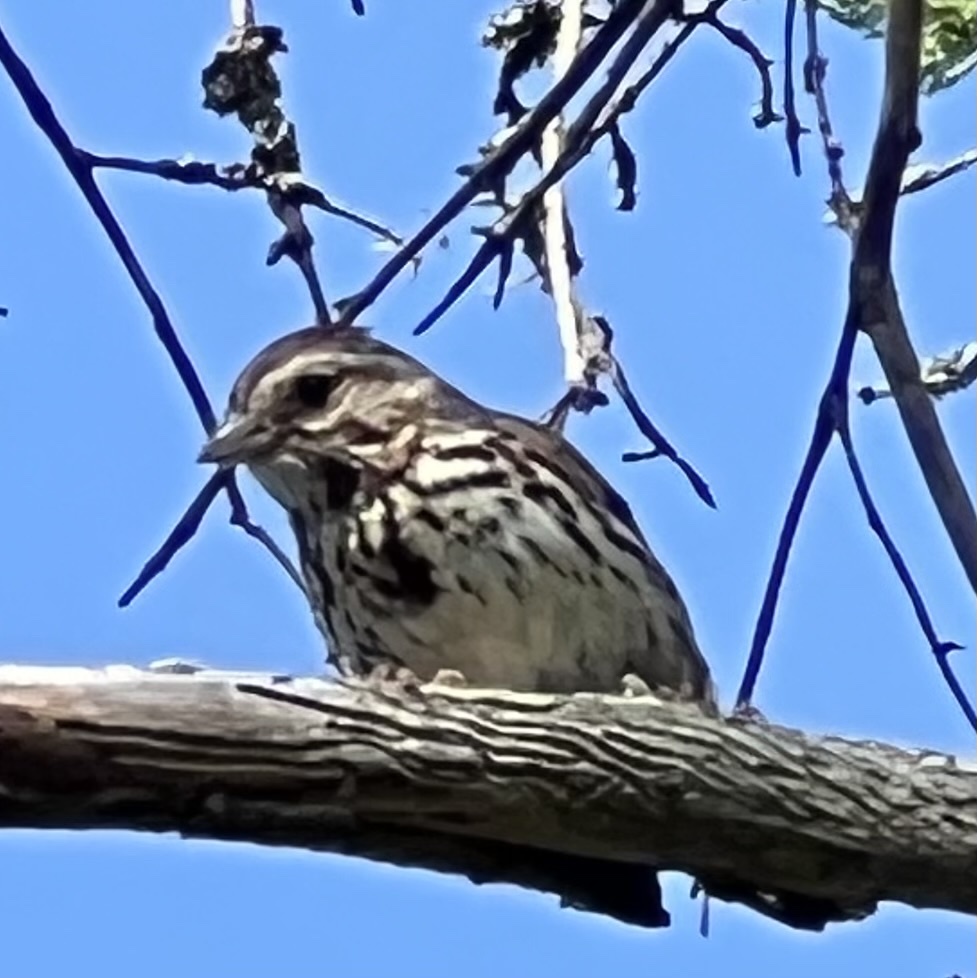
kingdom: Animalia
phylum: Chordata
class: Aves
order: Passeriformes
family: Passerellidae
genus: Melospiza
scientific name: Melospiza melodia
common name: Song sparrow
